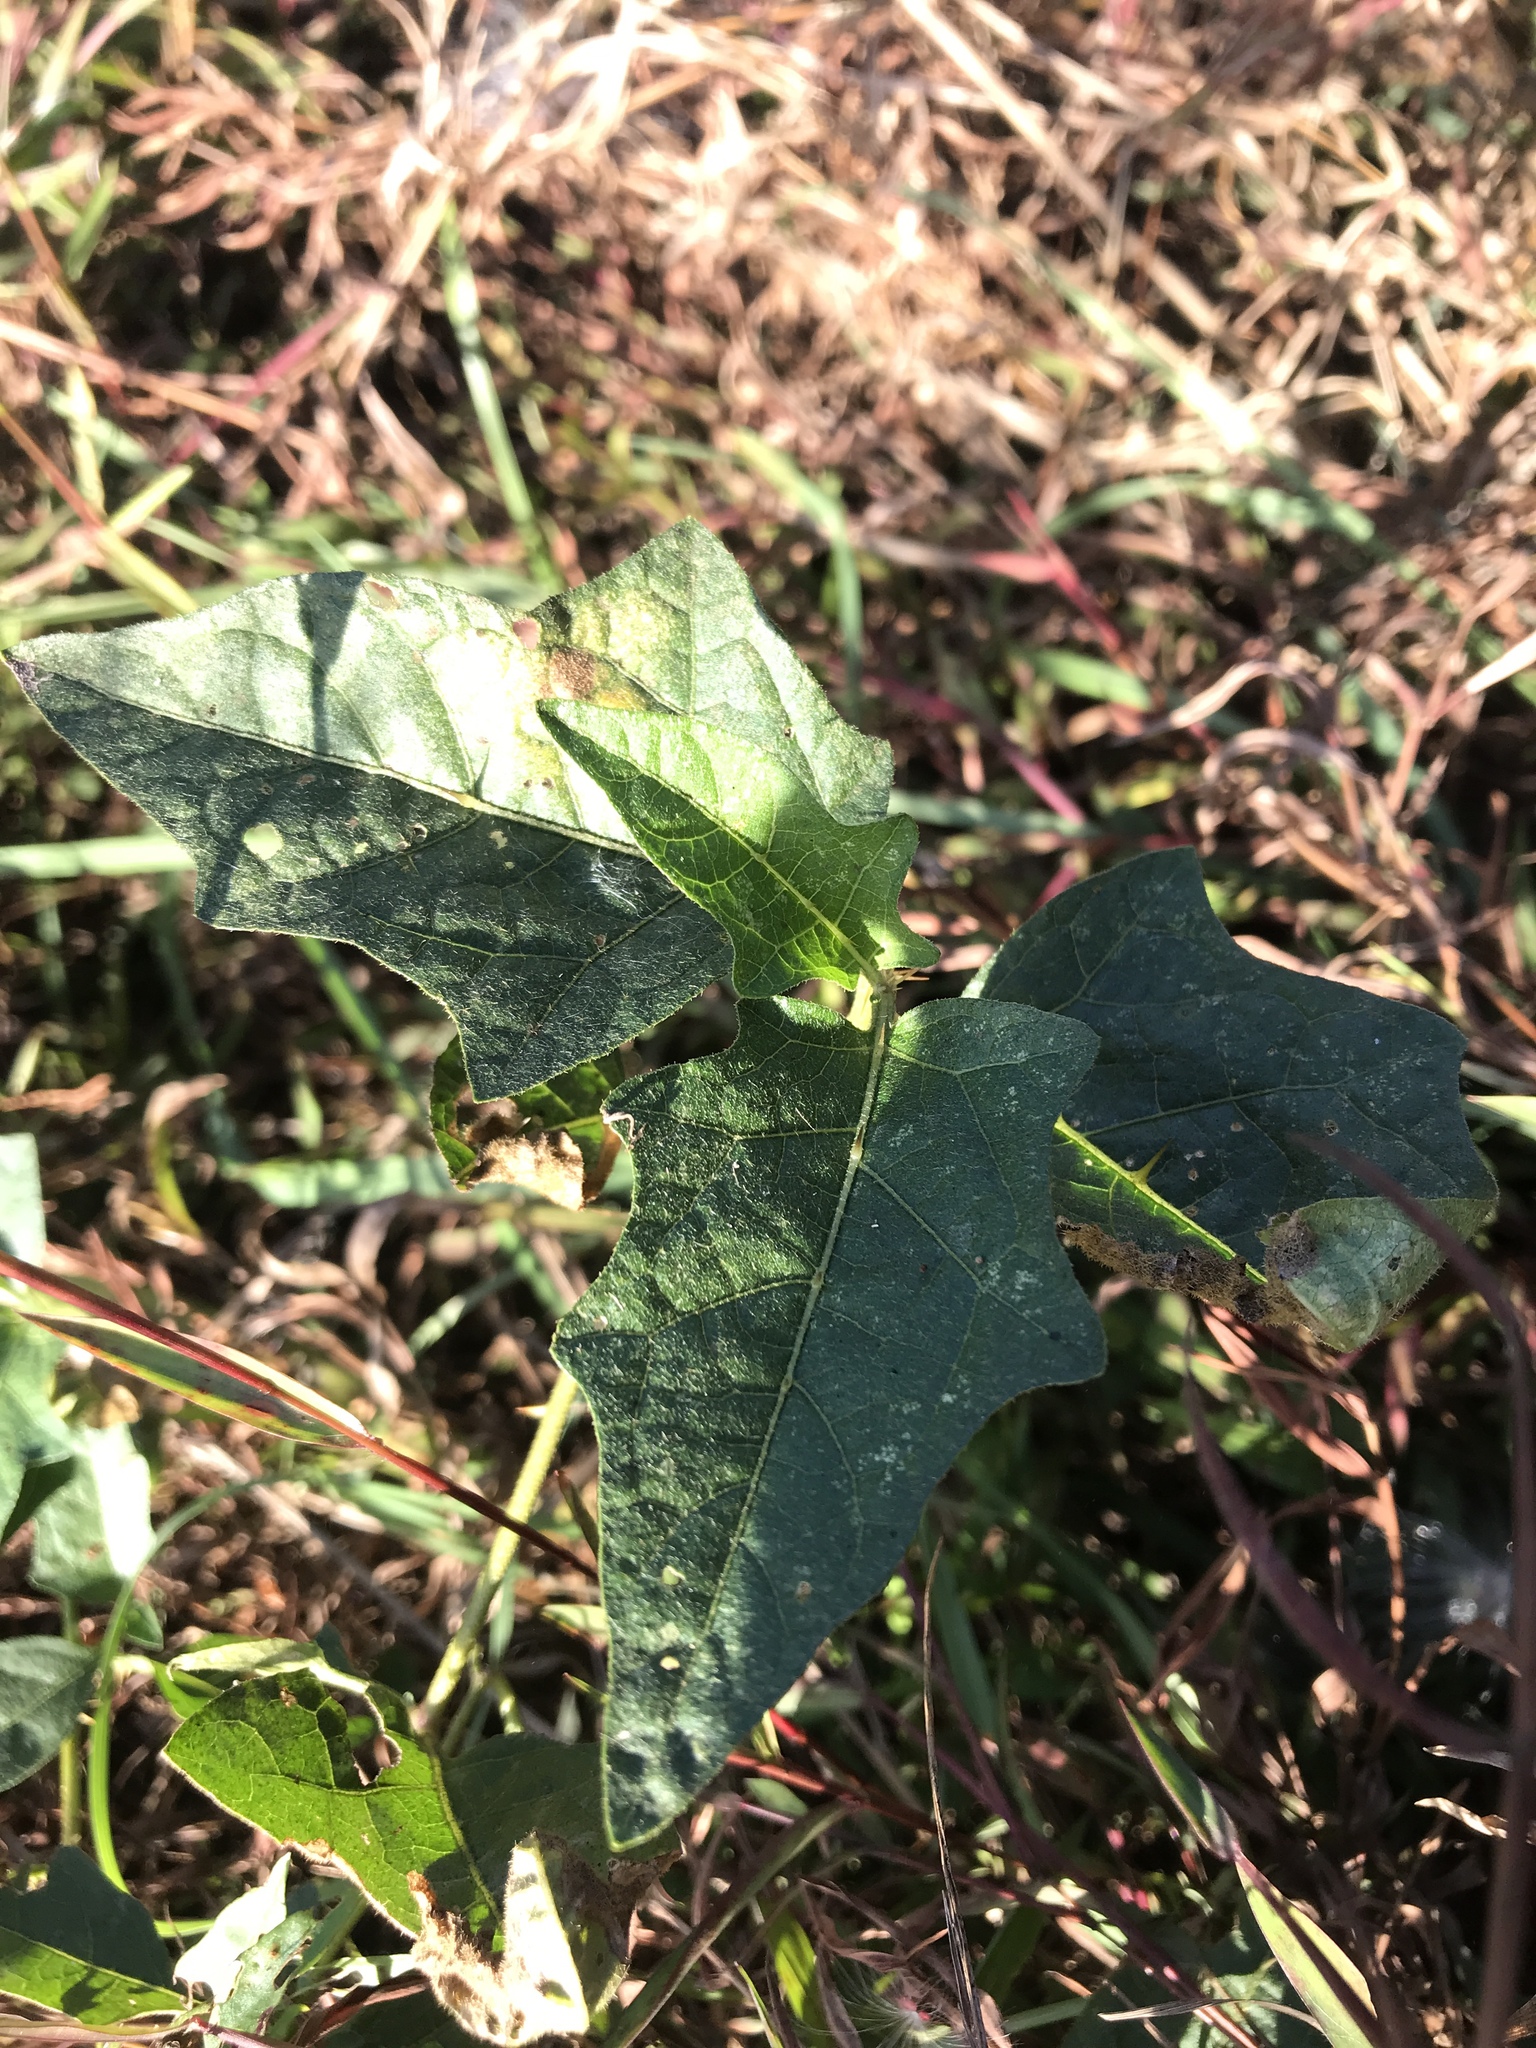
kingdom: Plantae
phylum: Tracheophyta
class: Magnoliopsida
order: Solanales
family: Solanaceae
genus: Solanum
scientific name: Solanum carolinense
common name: Horse-nettle
